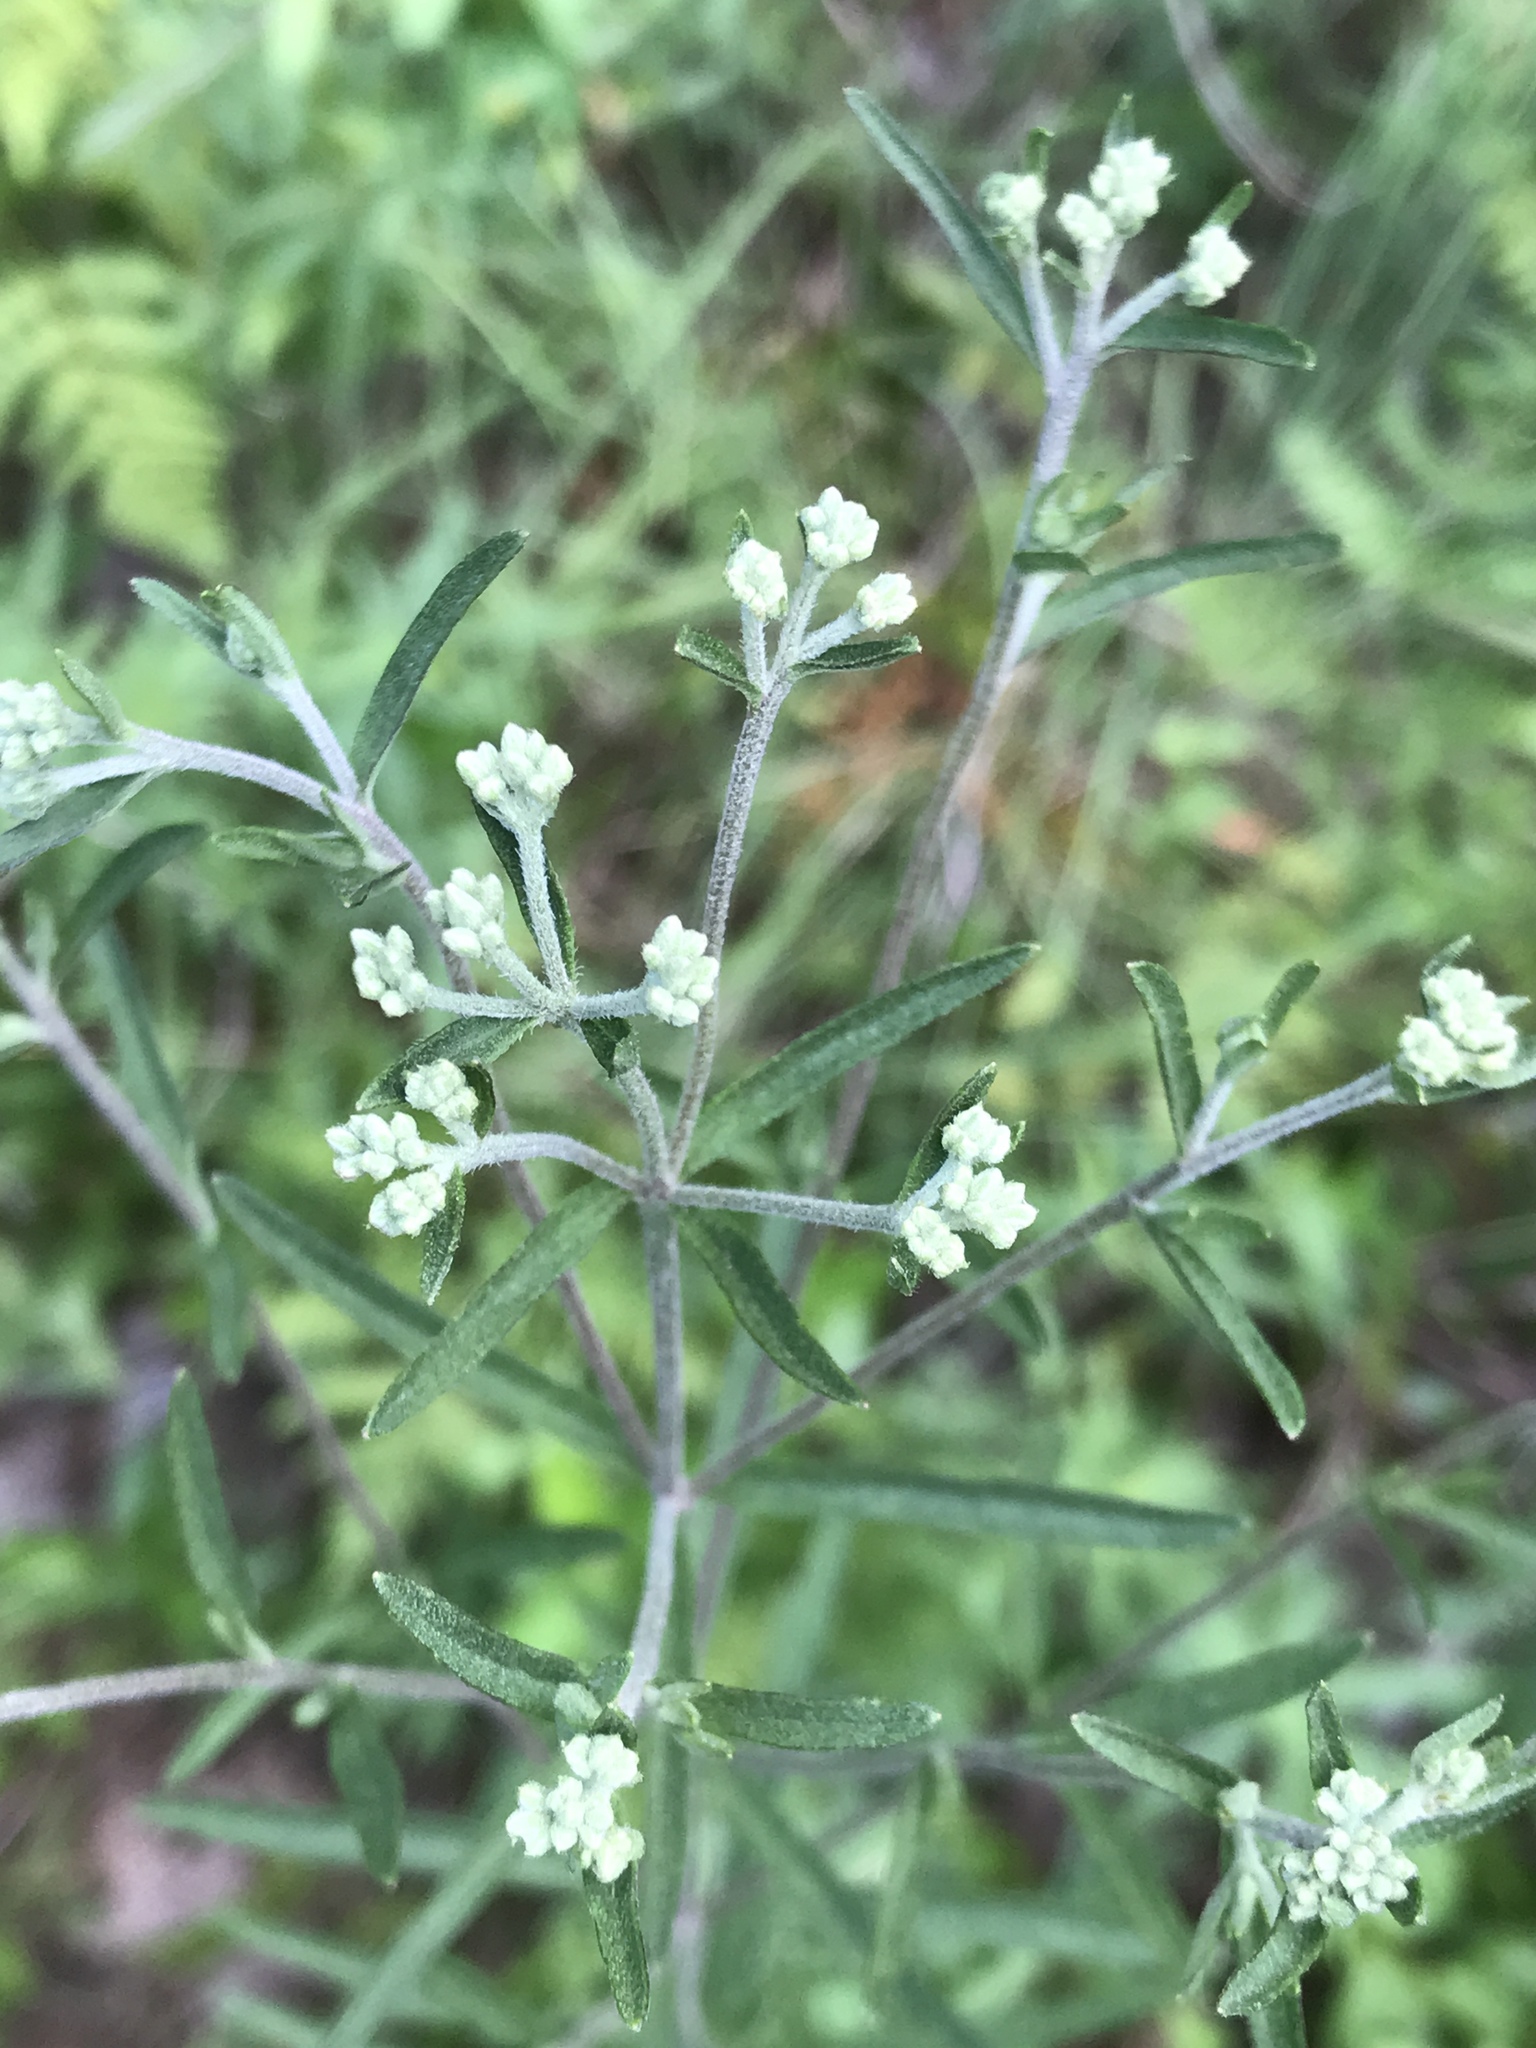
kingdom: Plantae
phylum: Tracheophyta
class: Magnoliopsida
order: Asterales
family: Asteraceae
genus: Eupatorium
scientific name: Eupatorium torreyanum
